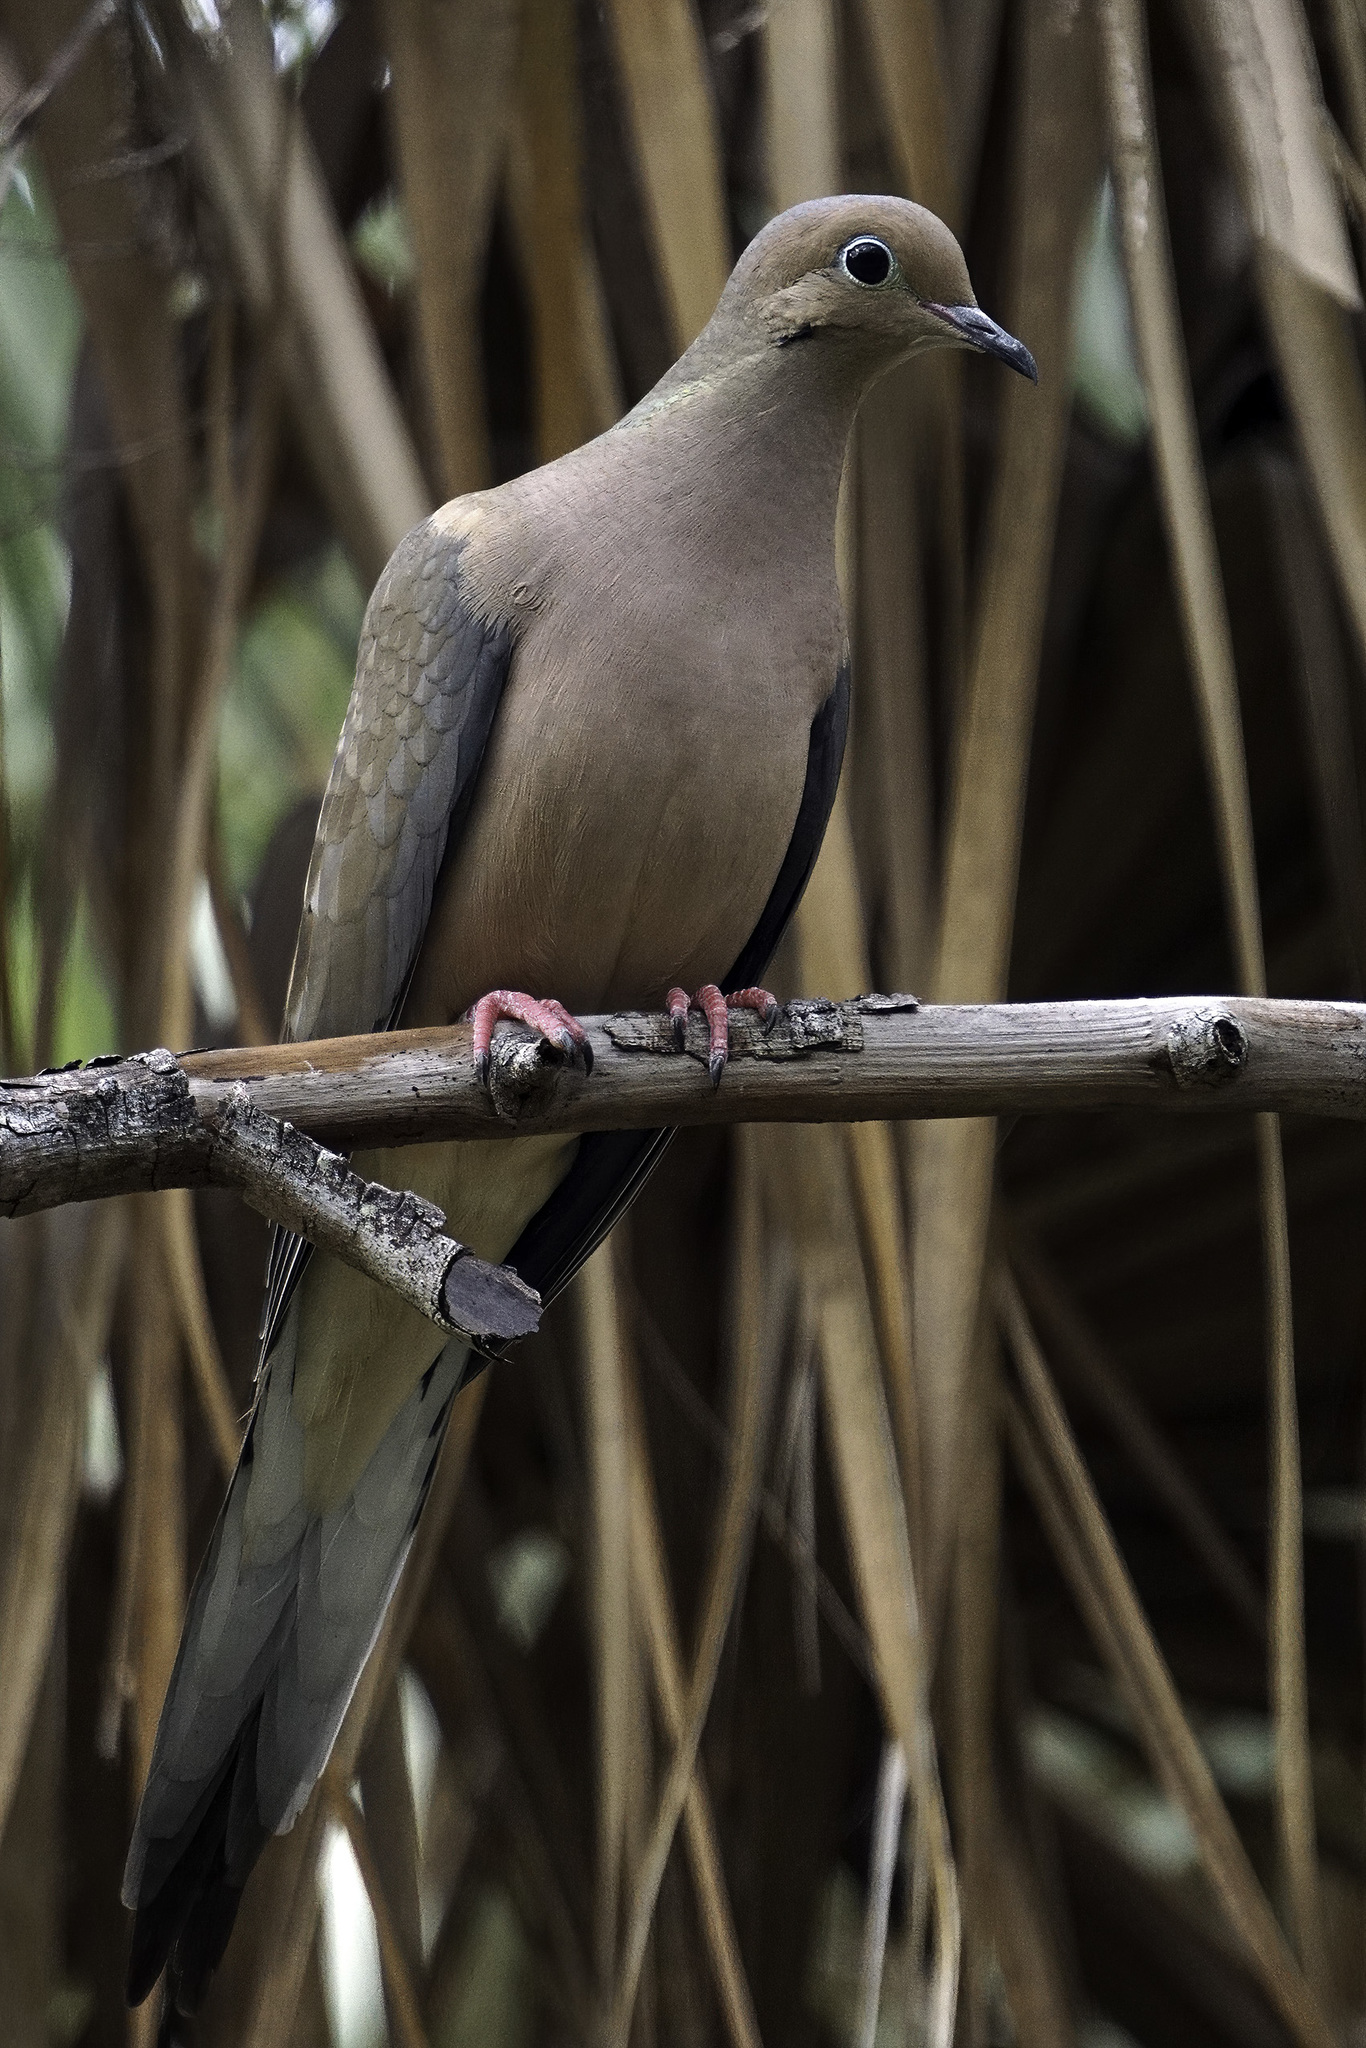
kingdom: Animalia
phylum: Chordata
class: Aves
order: Columbiformes
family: Columbidae
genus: Zenaida
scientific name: Zenaida macroura
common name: Mourning dove
